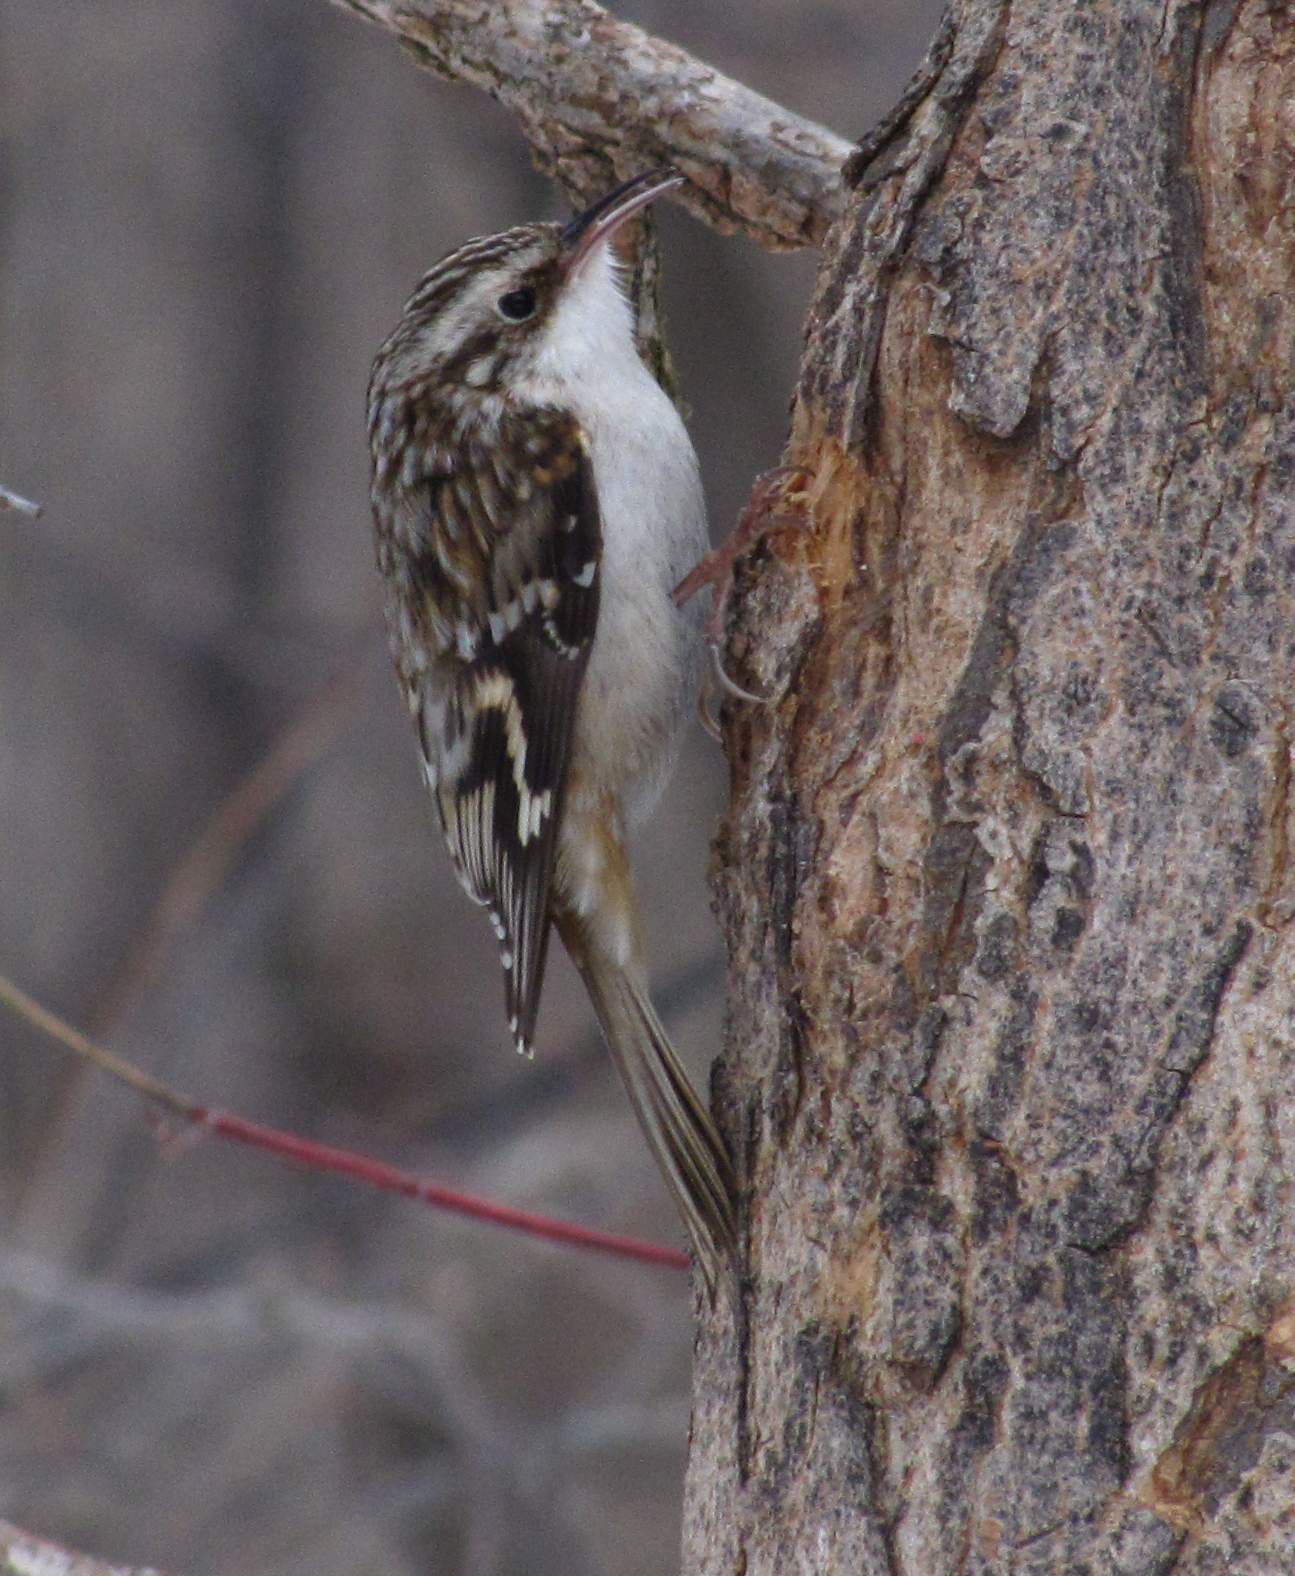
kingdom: Animalia
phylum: Chordata
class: Aves
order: Passeriformes
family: Certhiidae
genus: Certhia
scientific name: Certhia americana
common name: Brown creeper
